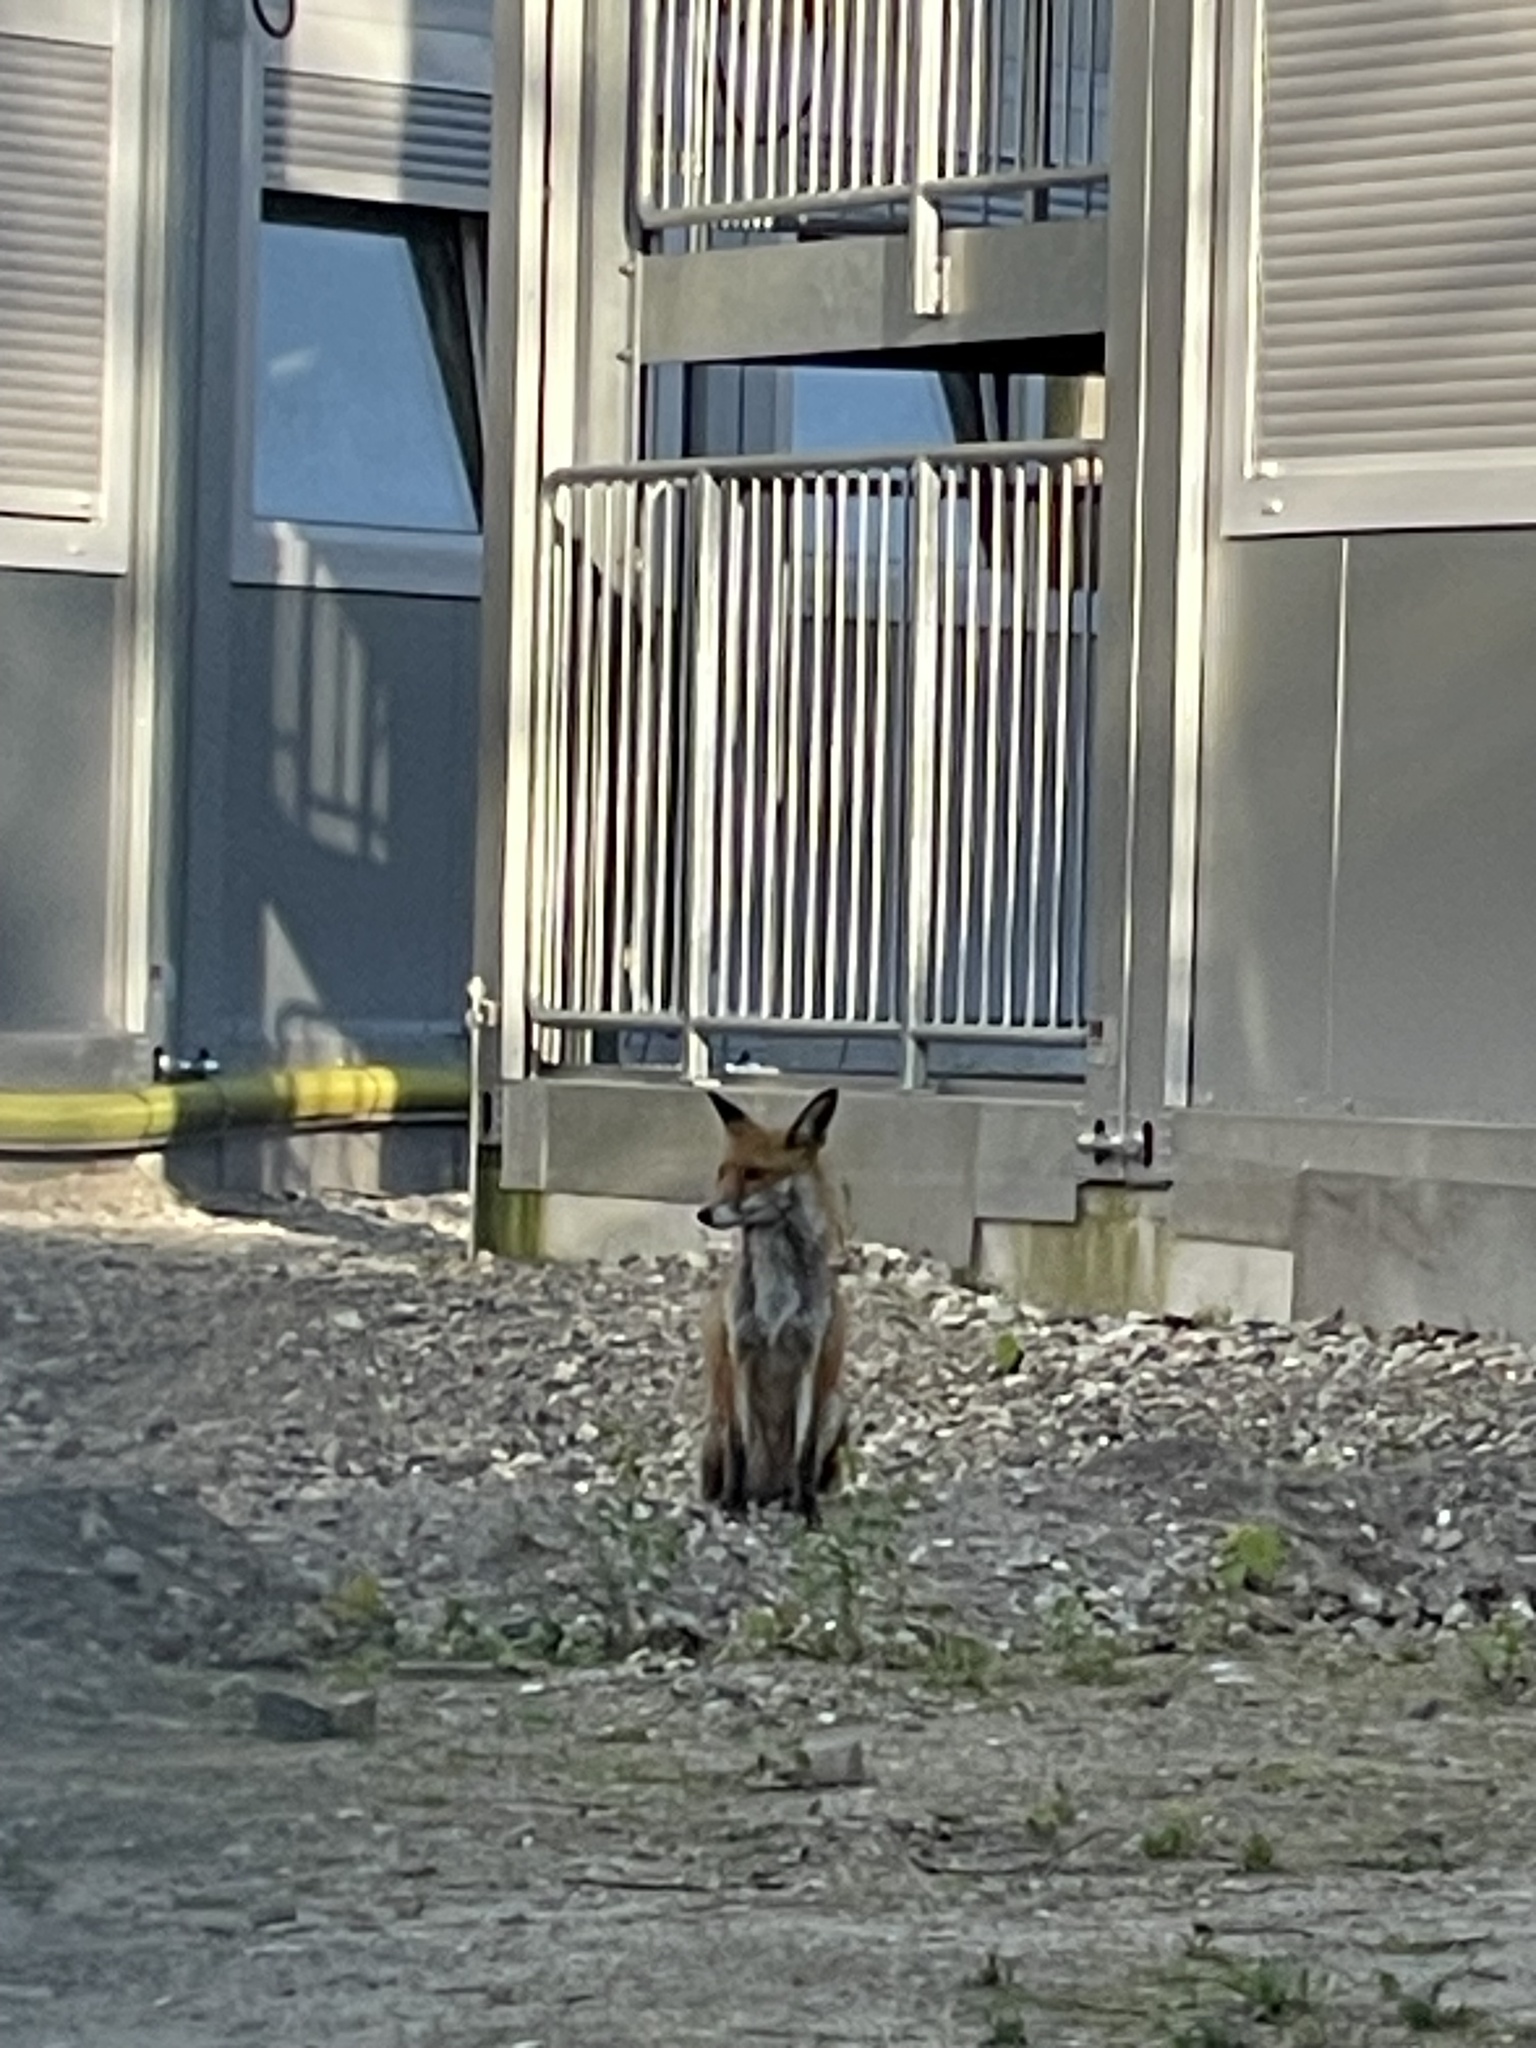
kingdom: Animalia
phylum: Chordata
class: Mammalia
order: Carnivora
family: Canidae
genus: Vulpes
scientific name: Vulpes vulpes
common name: Red fox
